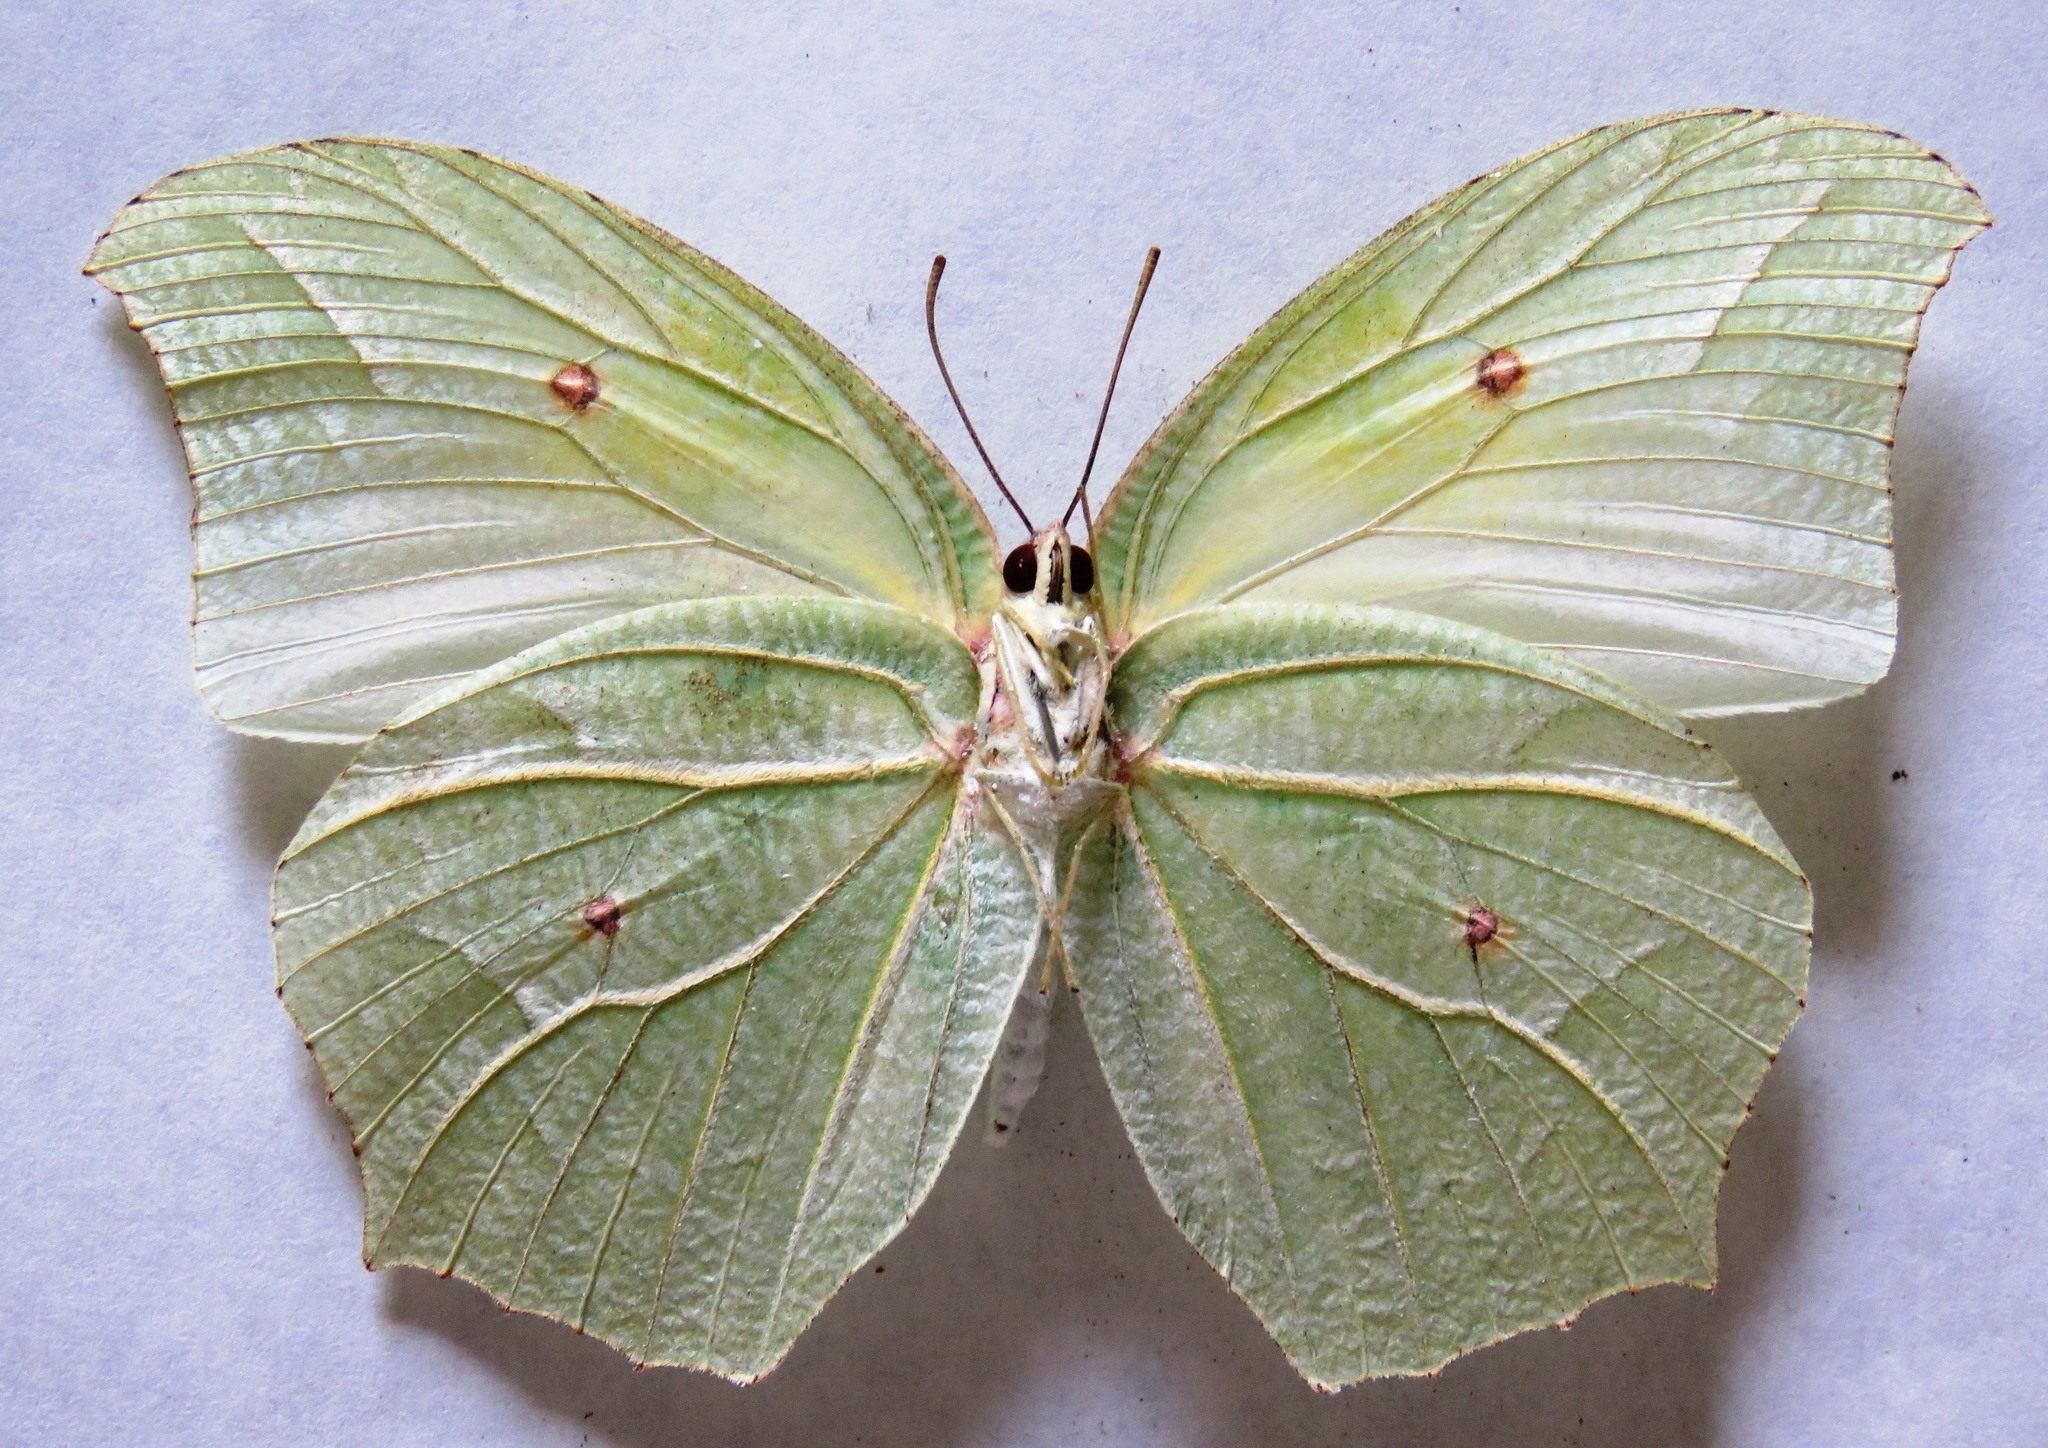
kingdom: Animalia
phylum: Arthropoda
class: Insecta
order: Lepidoptera
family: Pieridae
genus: Anteos
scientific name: Anteos clorinde
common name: White angled sulphur
